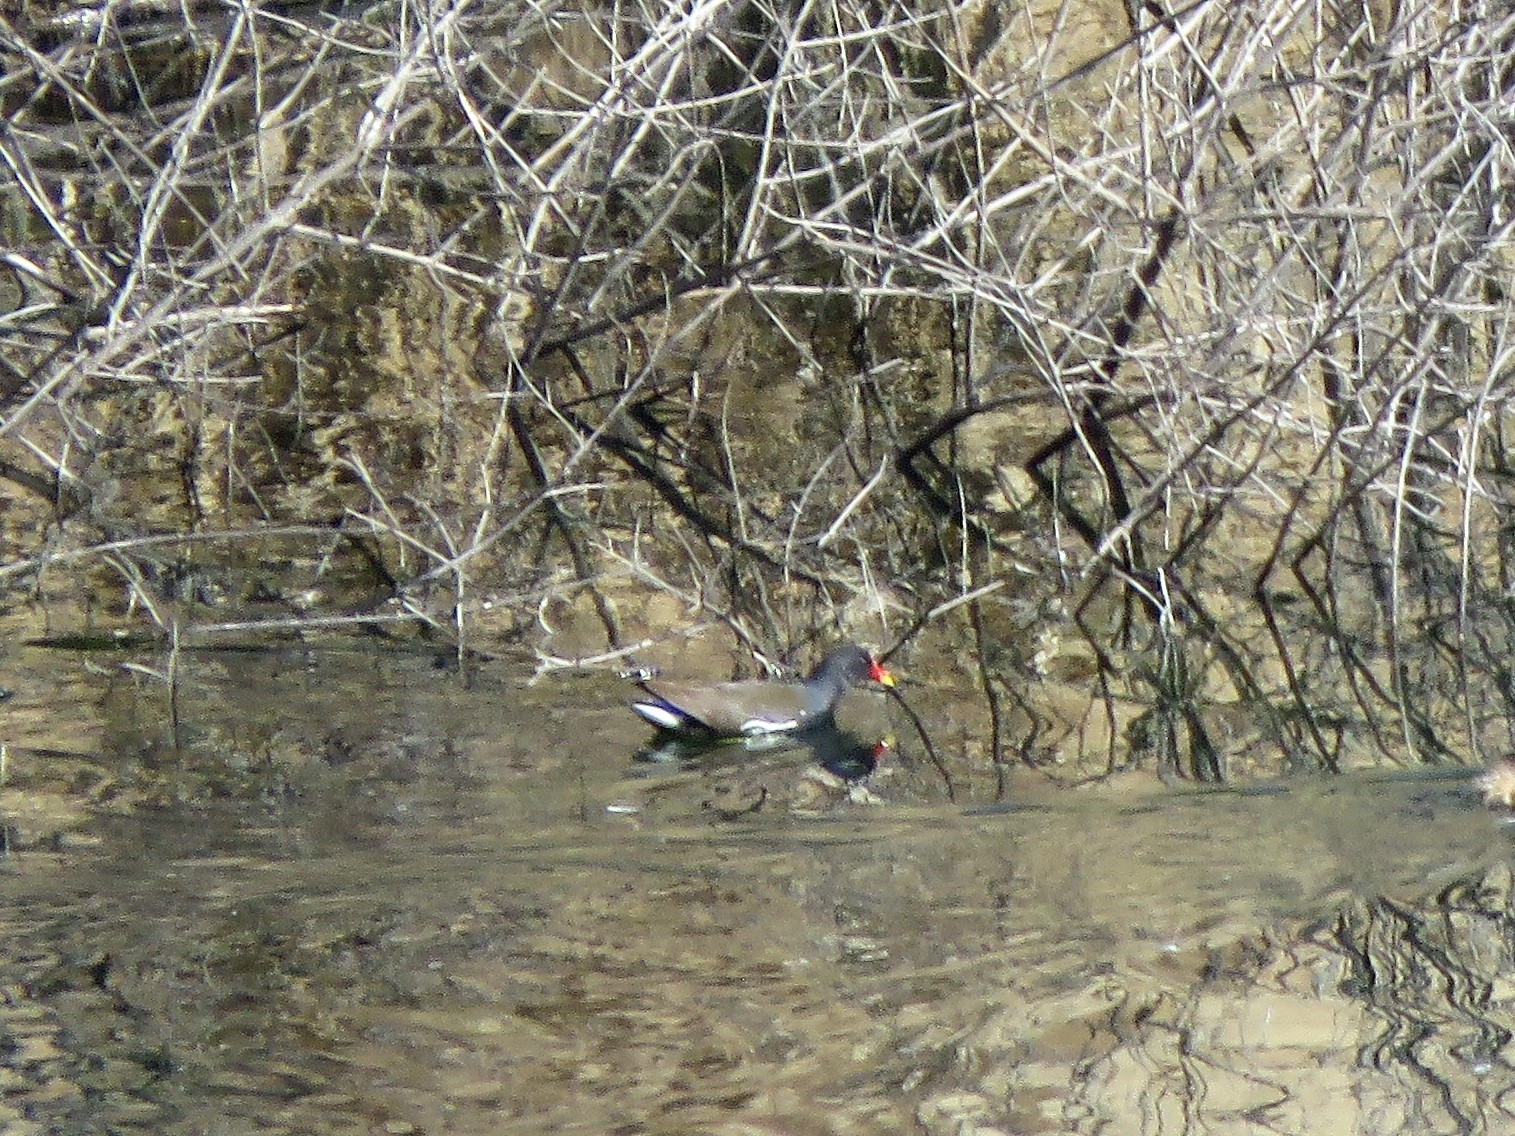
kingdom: Animalia
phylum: Chordata
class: Aves
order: Gruiformes
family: Rallidae
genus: Gallinula
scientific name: Gallinula chloropus
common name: Common moorhen
